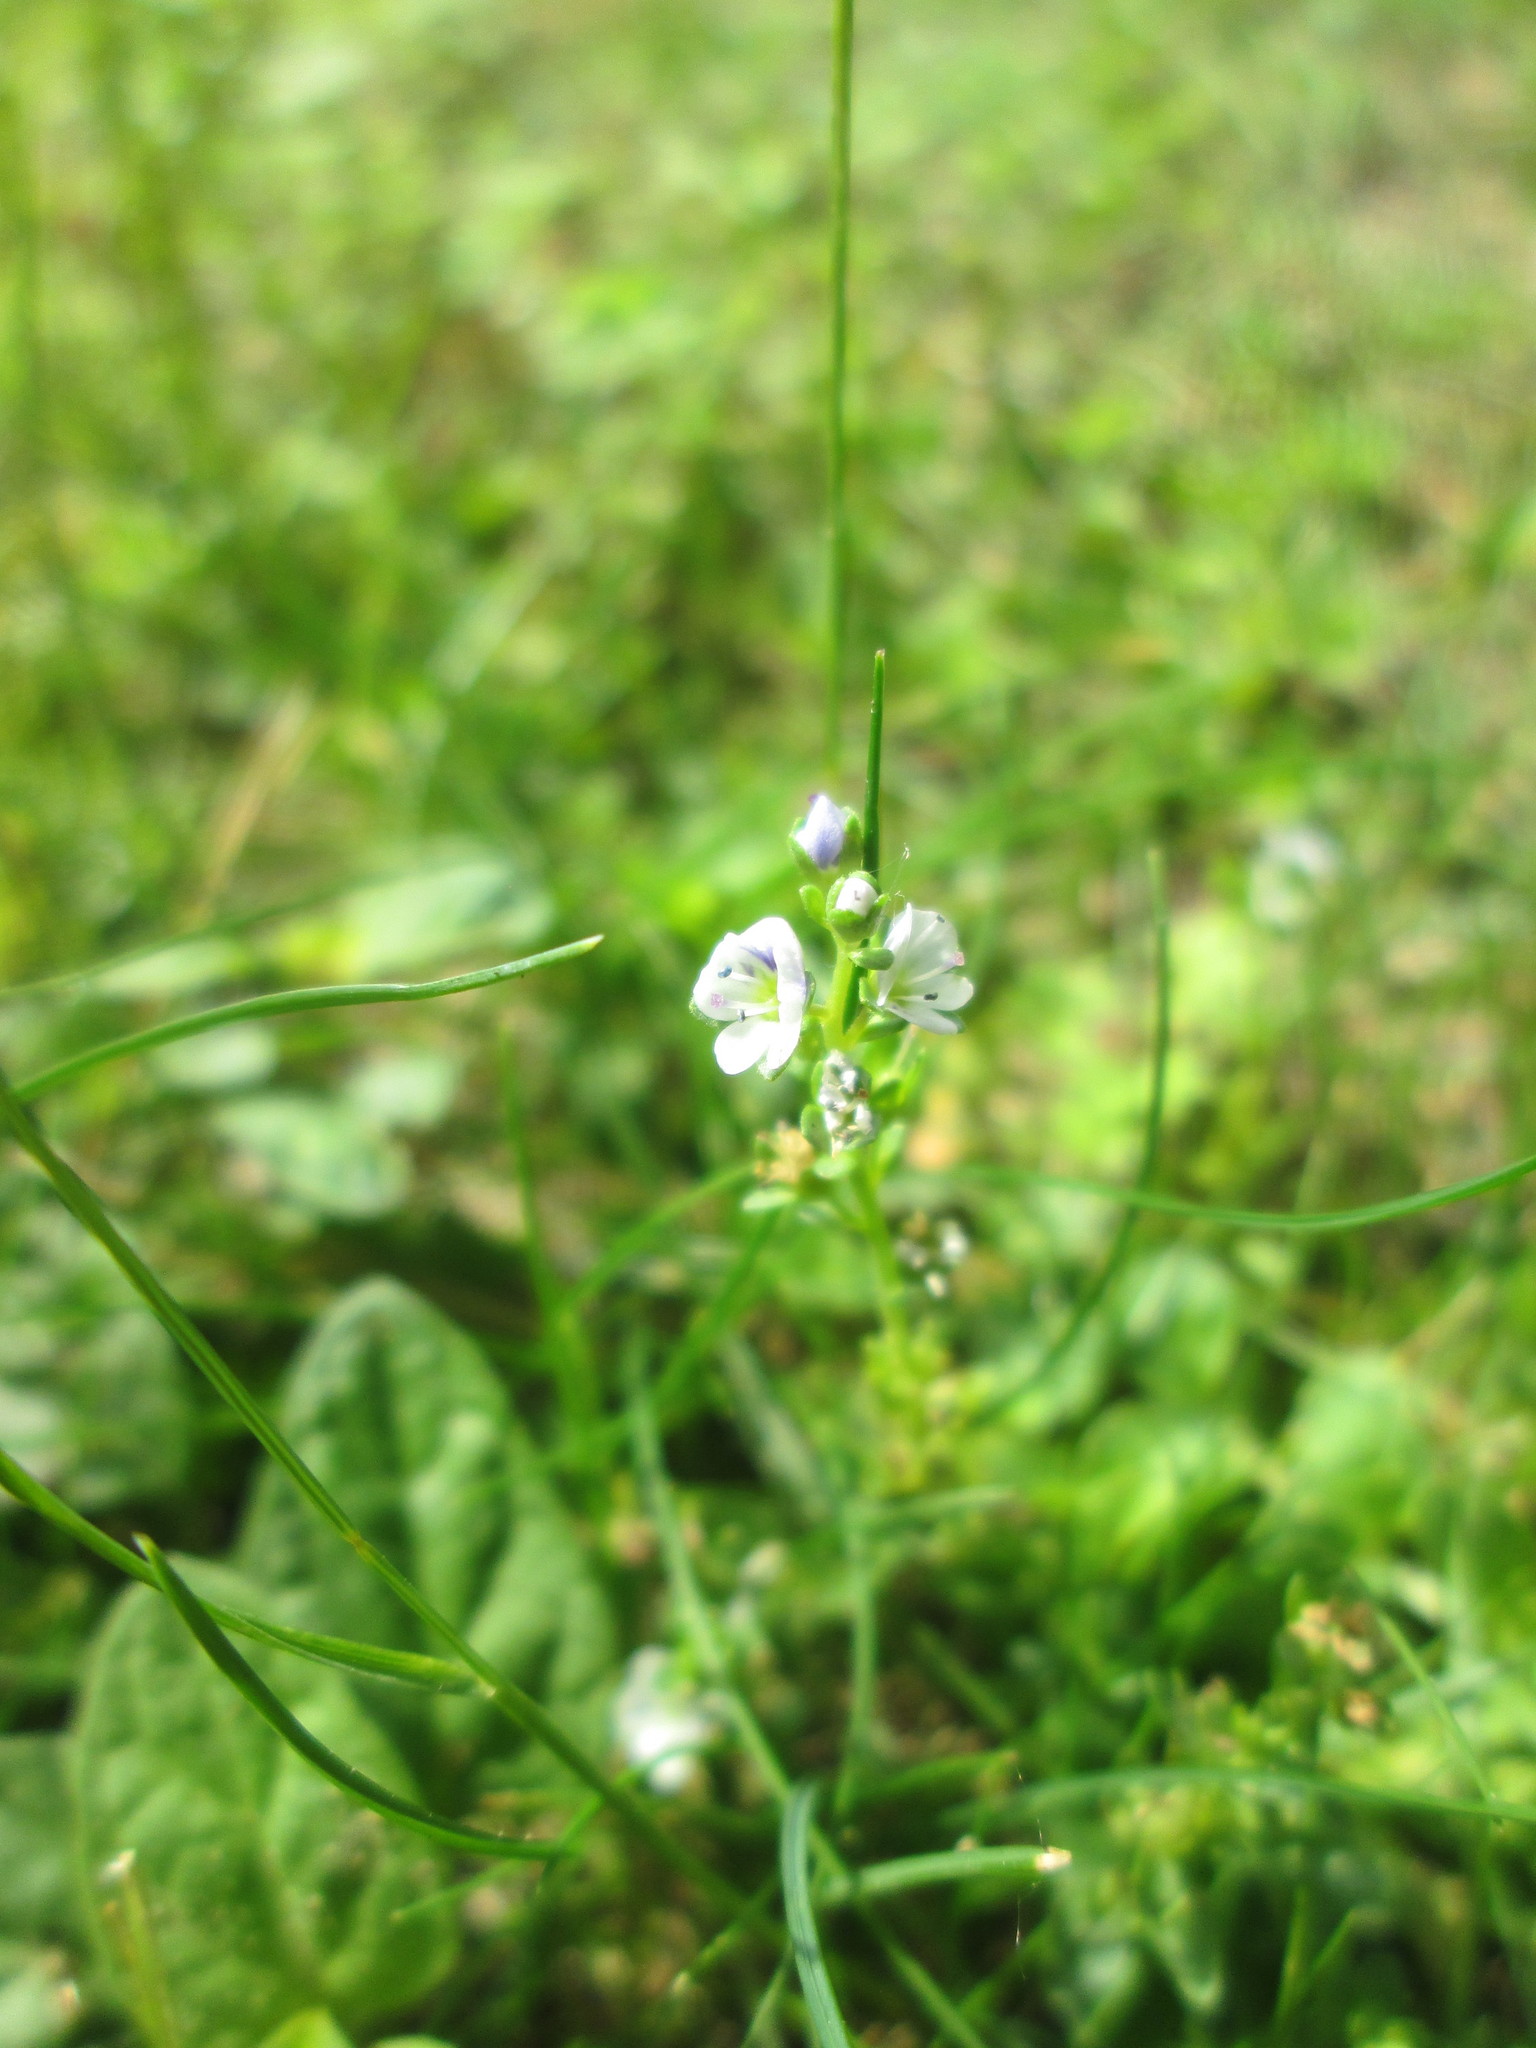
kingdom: Plantae
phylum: Tracheophyta
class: Magnoliopsida
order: Lamiales
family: Plantaginaceae
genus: Veronica
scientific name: Veronica serpyllifolia
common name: Thyme-leaved speedwell
